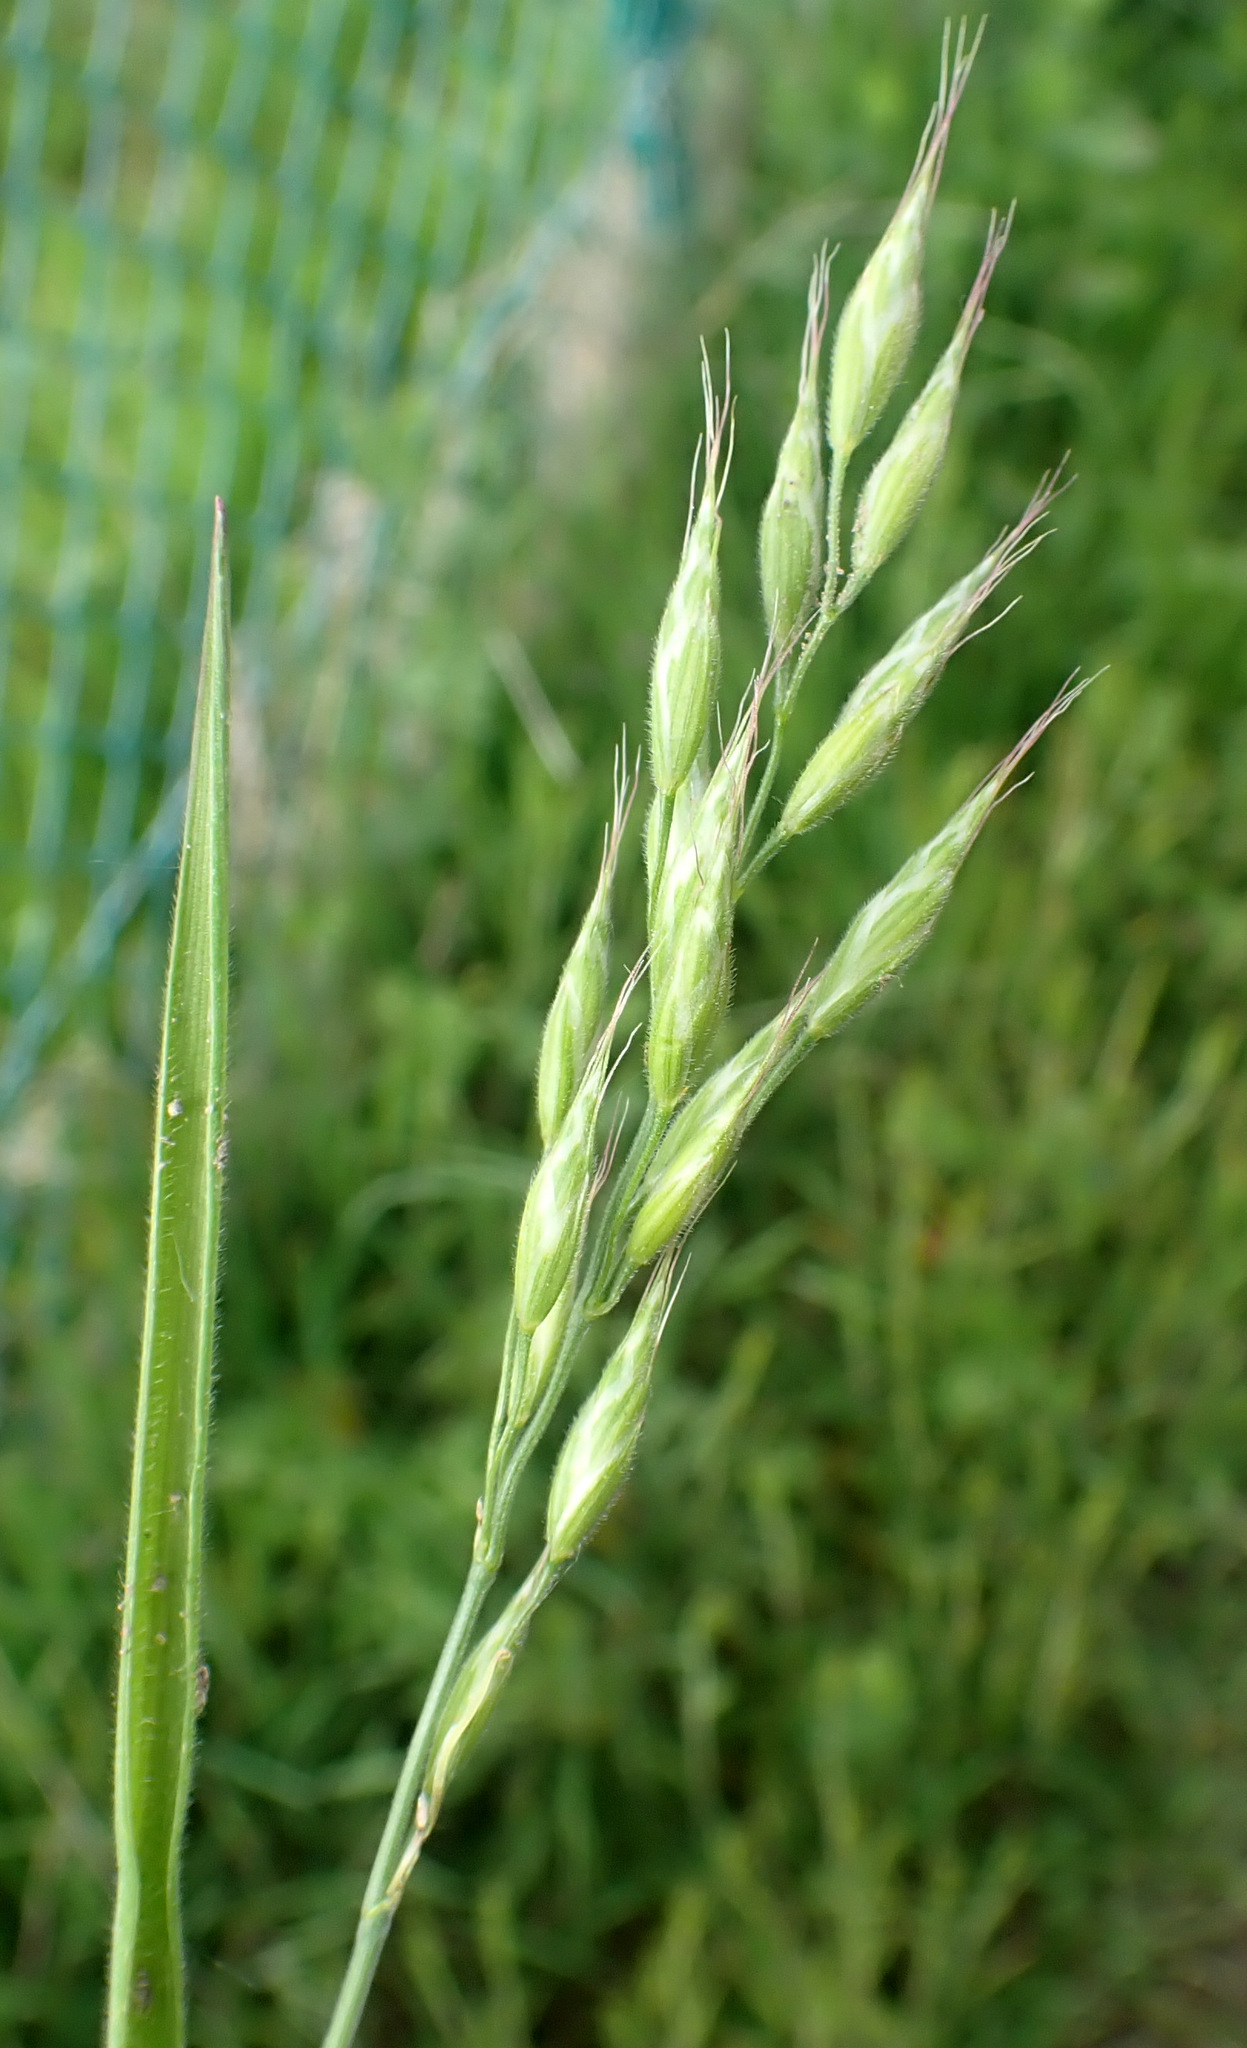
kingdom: Plantae
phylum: Tracheophyta
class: Liliopsida
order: Poales
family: Poaceae
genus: Bromus
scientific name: Bromus hordeaceus
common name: Soft brome
